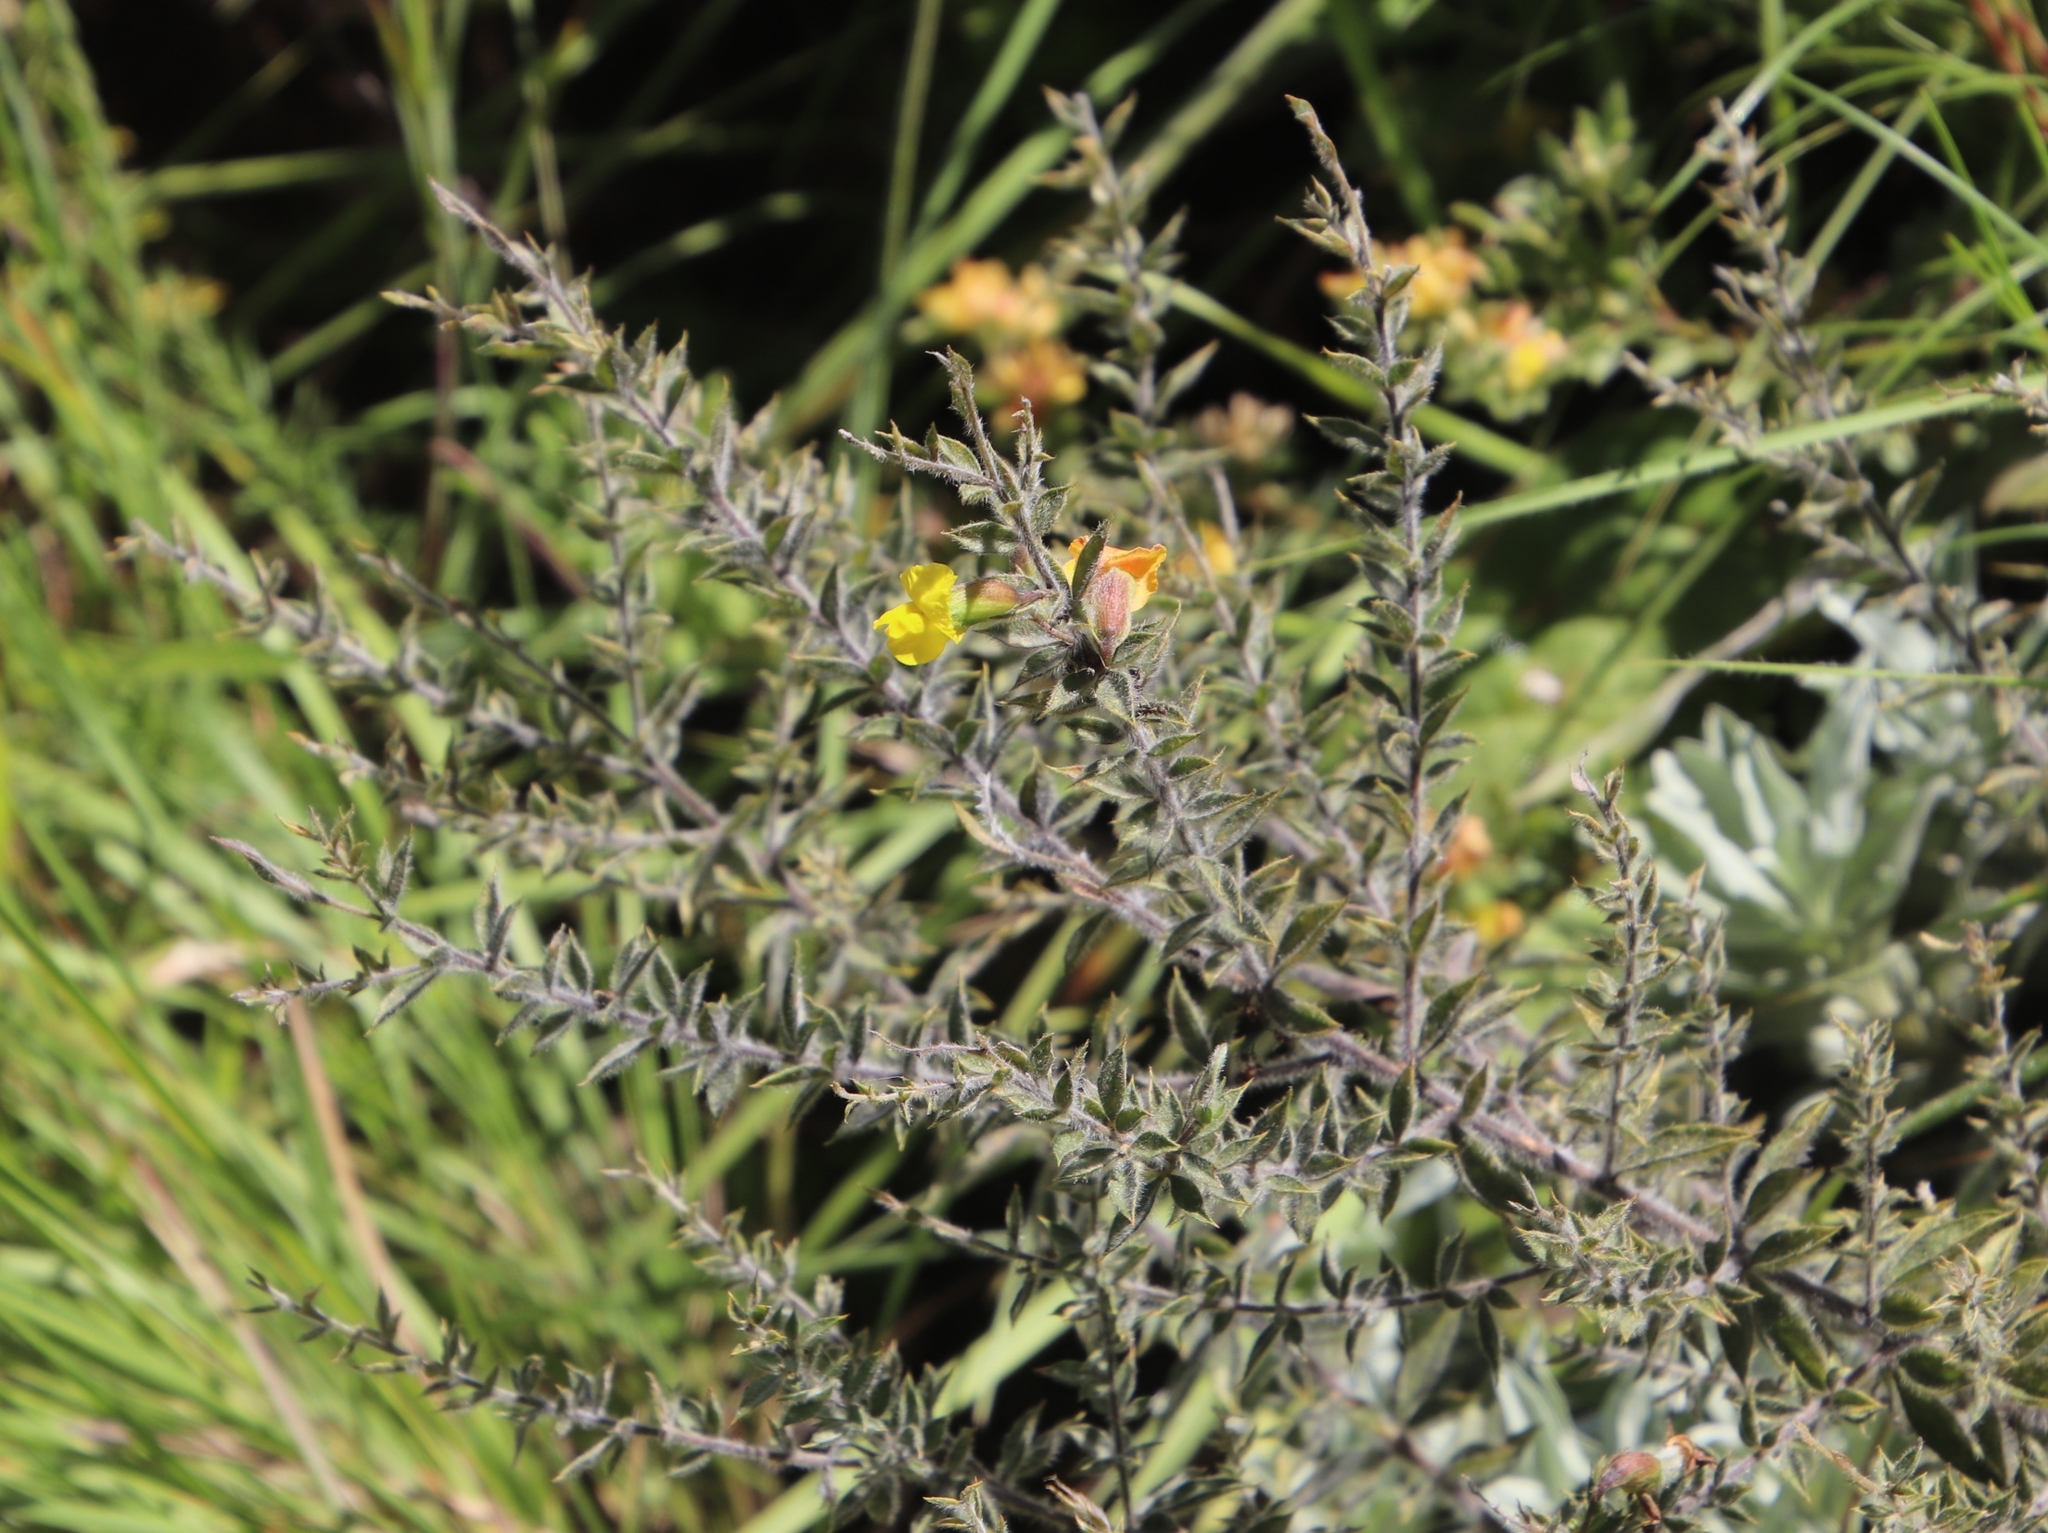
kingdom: Plantae
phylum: Tracheophyta
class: Magnoliopsida
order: Fabales
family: Fabaceae
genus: Pearsonia
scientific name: Pearsonia sessilifolia
